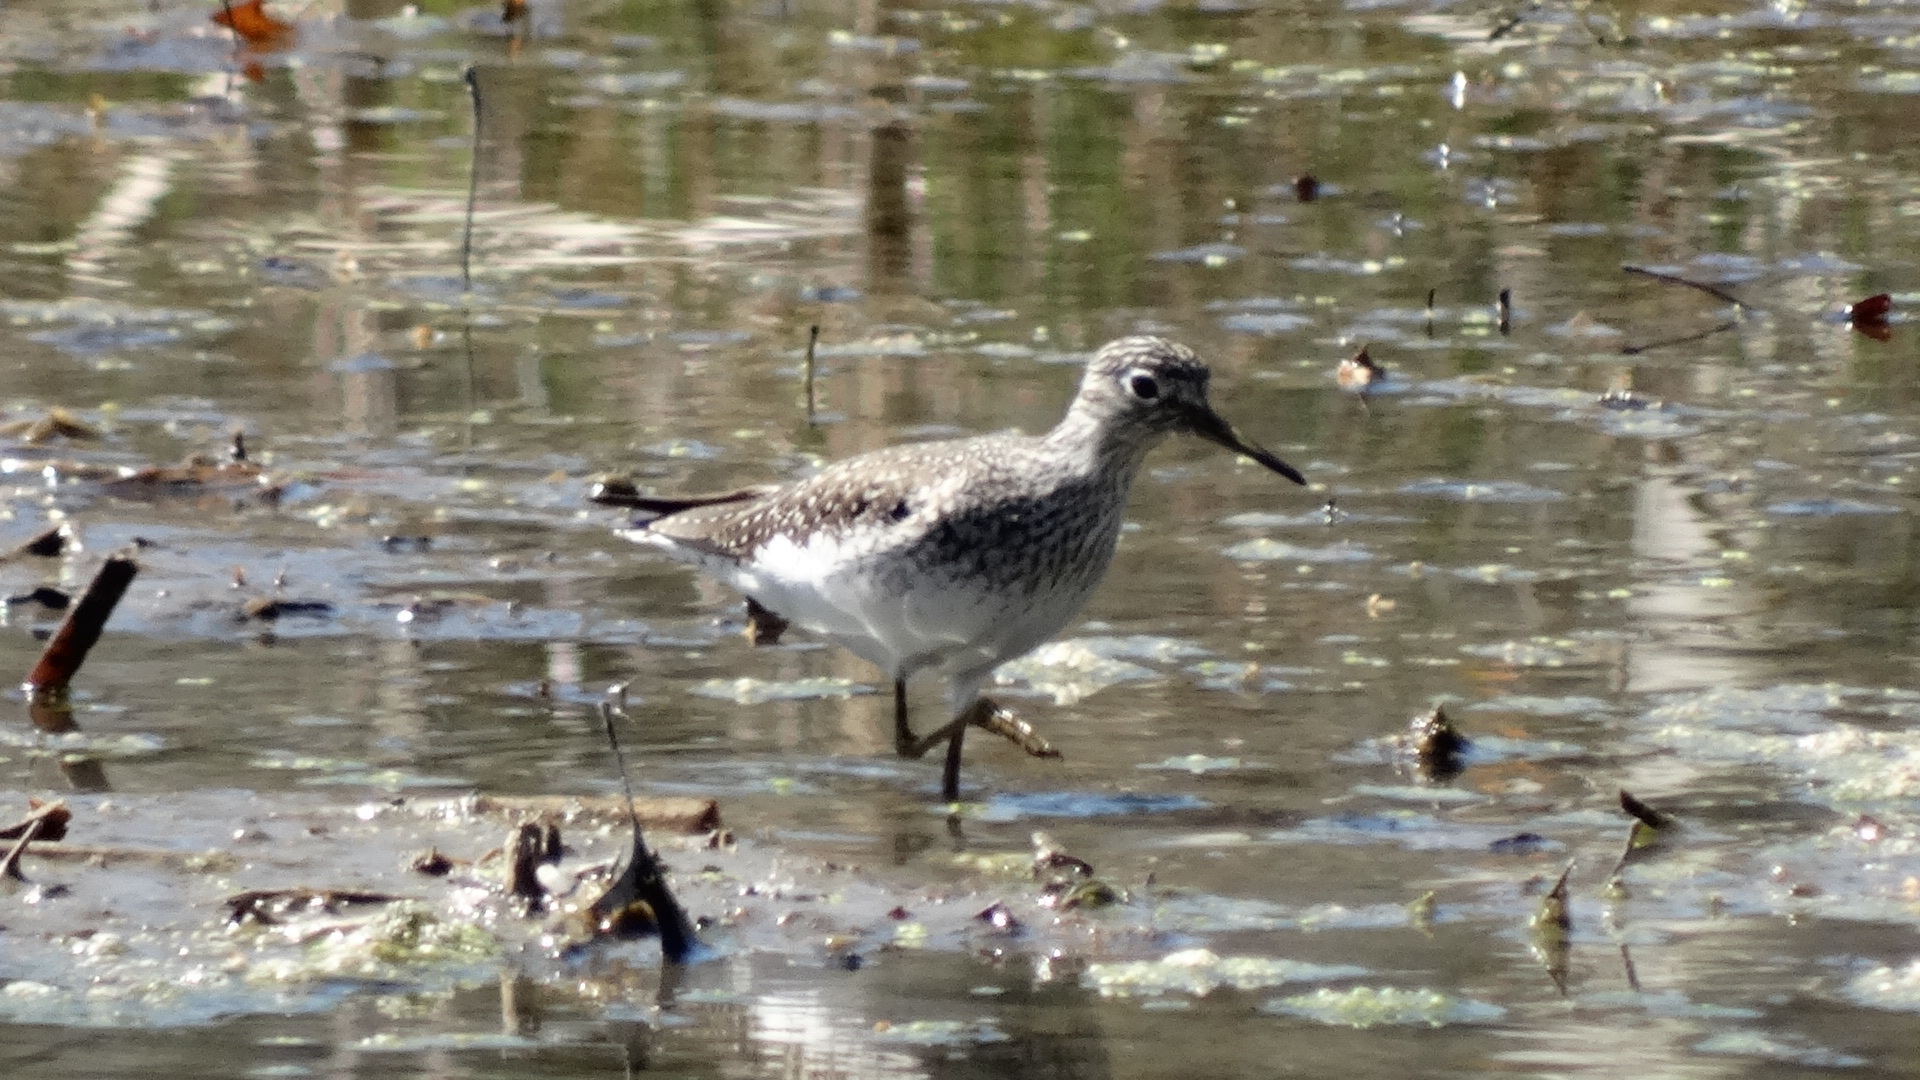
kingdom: Animalia
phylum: Chordata
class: Aves
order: Charadriiformes
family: Scolopacidae
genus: Tringa
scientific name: Tringa solitaria
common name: Solitary sandpiper
